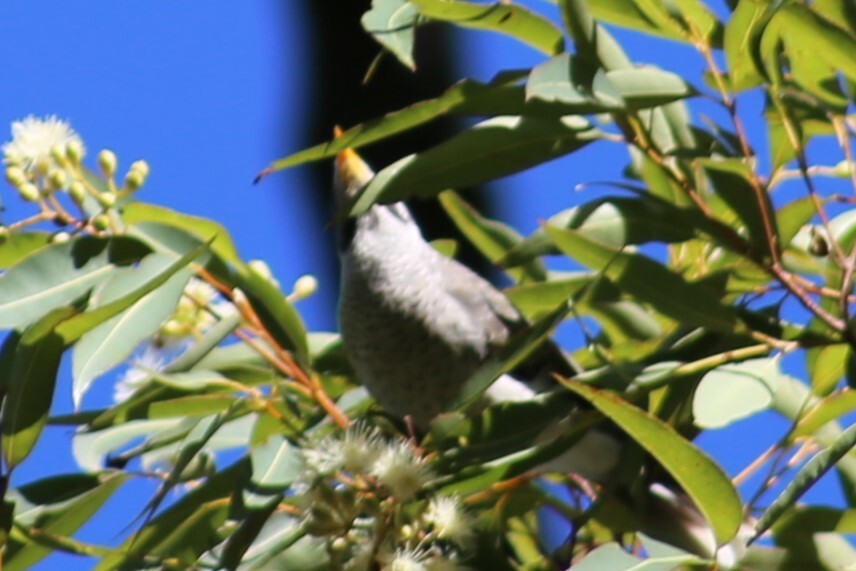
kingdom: Animalia
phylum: Chordata
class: Aves
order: Passeriformes
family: Meliphagidae
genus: Manorina
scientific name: Manorina melanocephala
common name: Noisy miner
